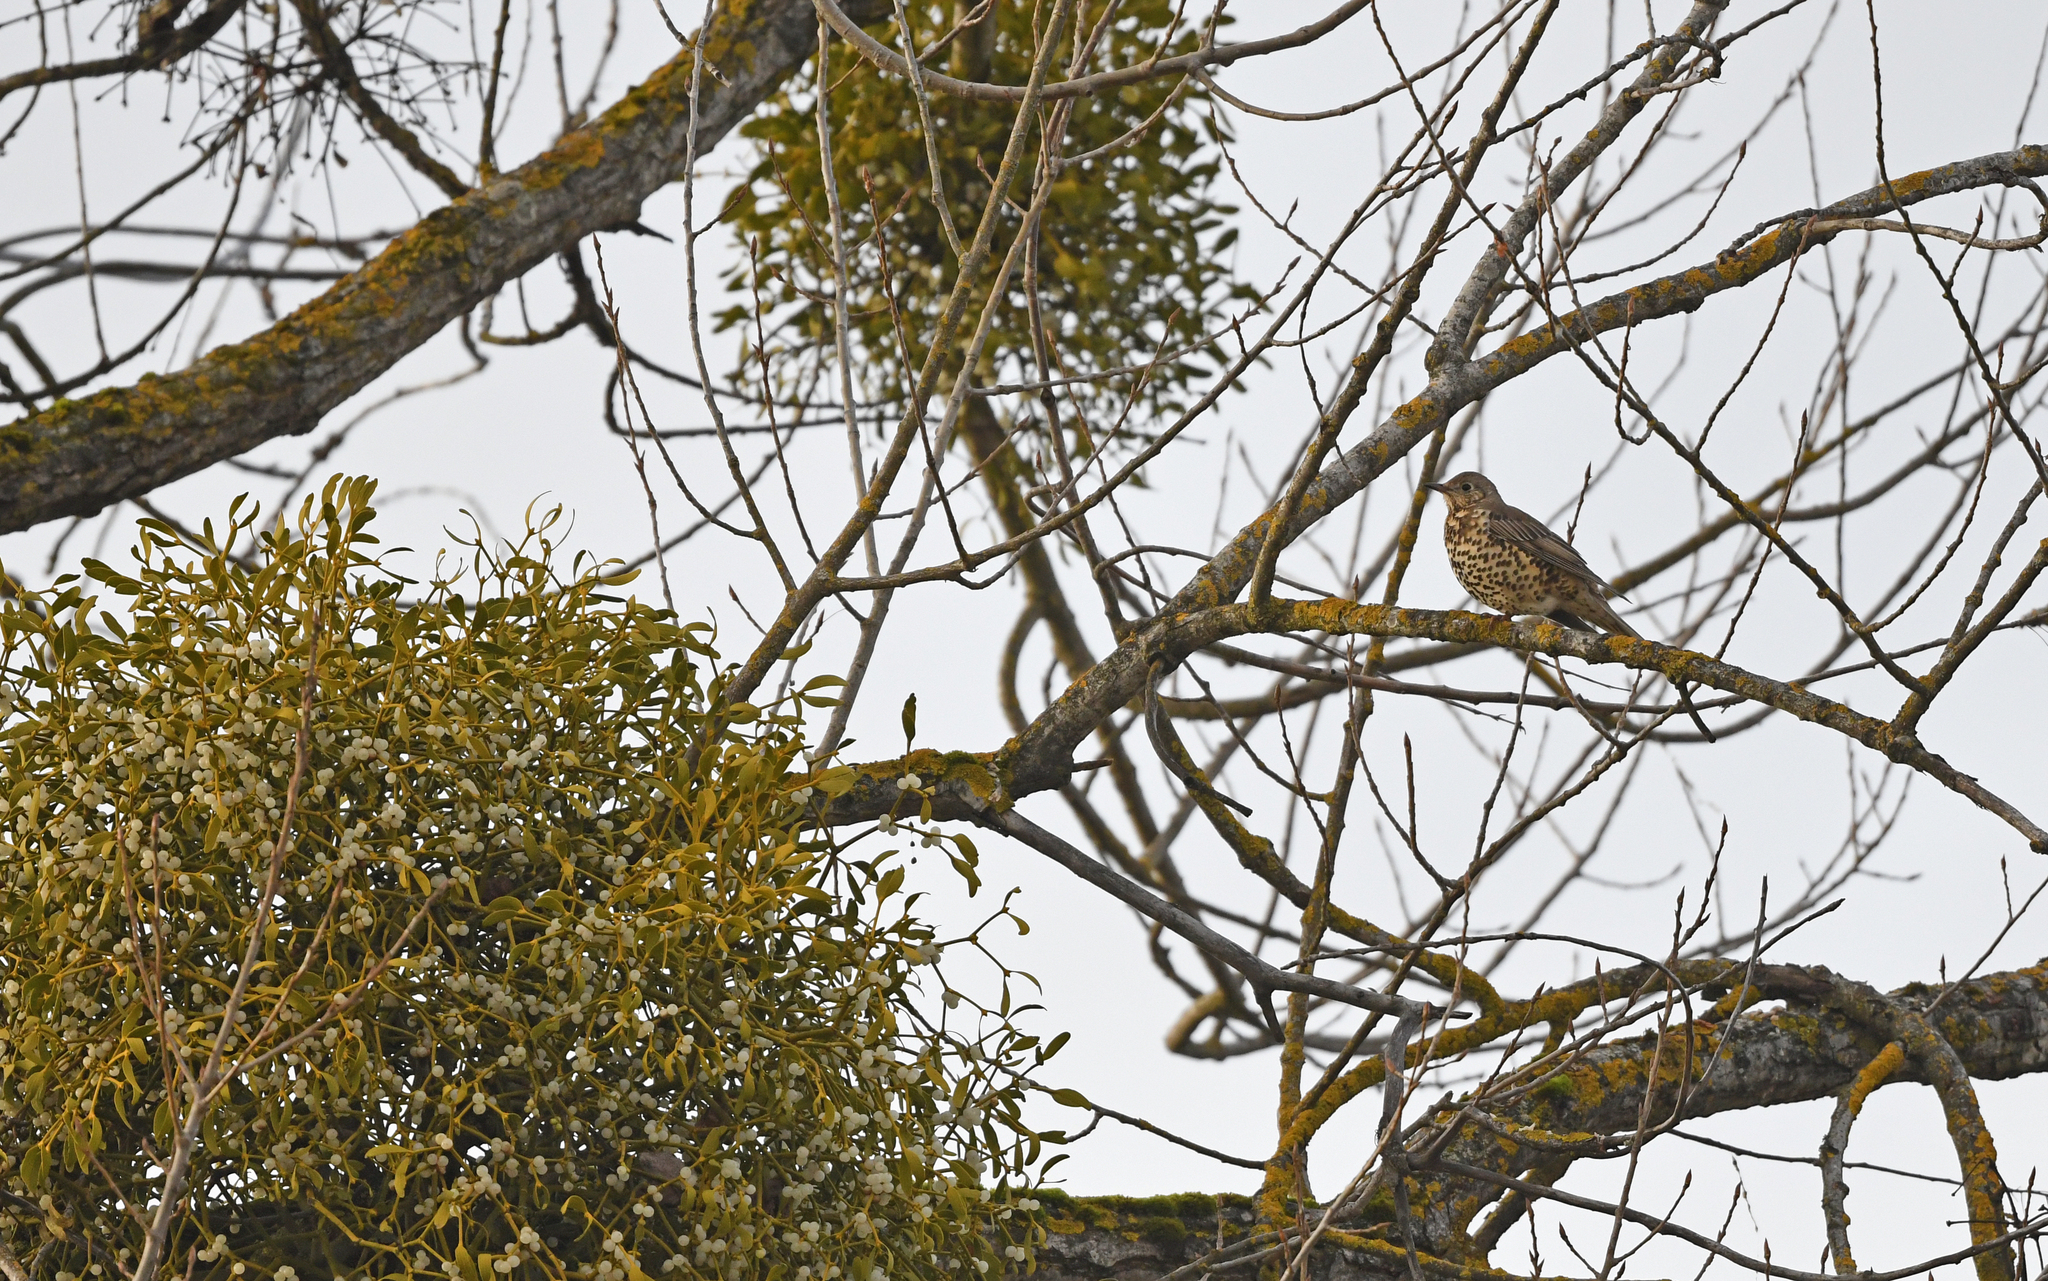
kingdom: Animalia
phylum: Chordata
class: Aves
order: Passeriformes
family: Turdidae
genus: Turdus
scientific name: Turdus viscivorus
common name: Mistle thrush
